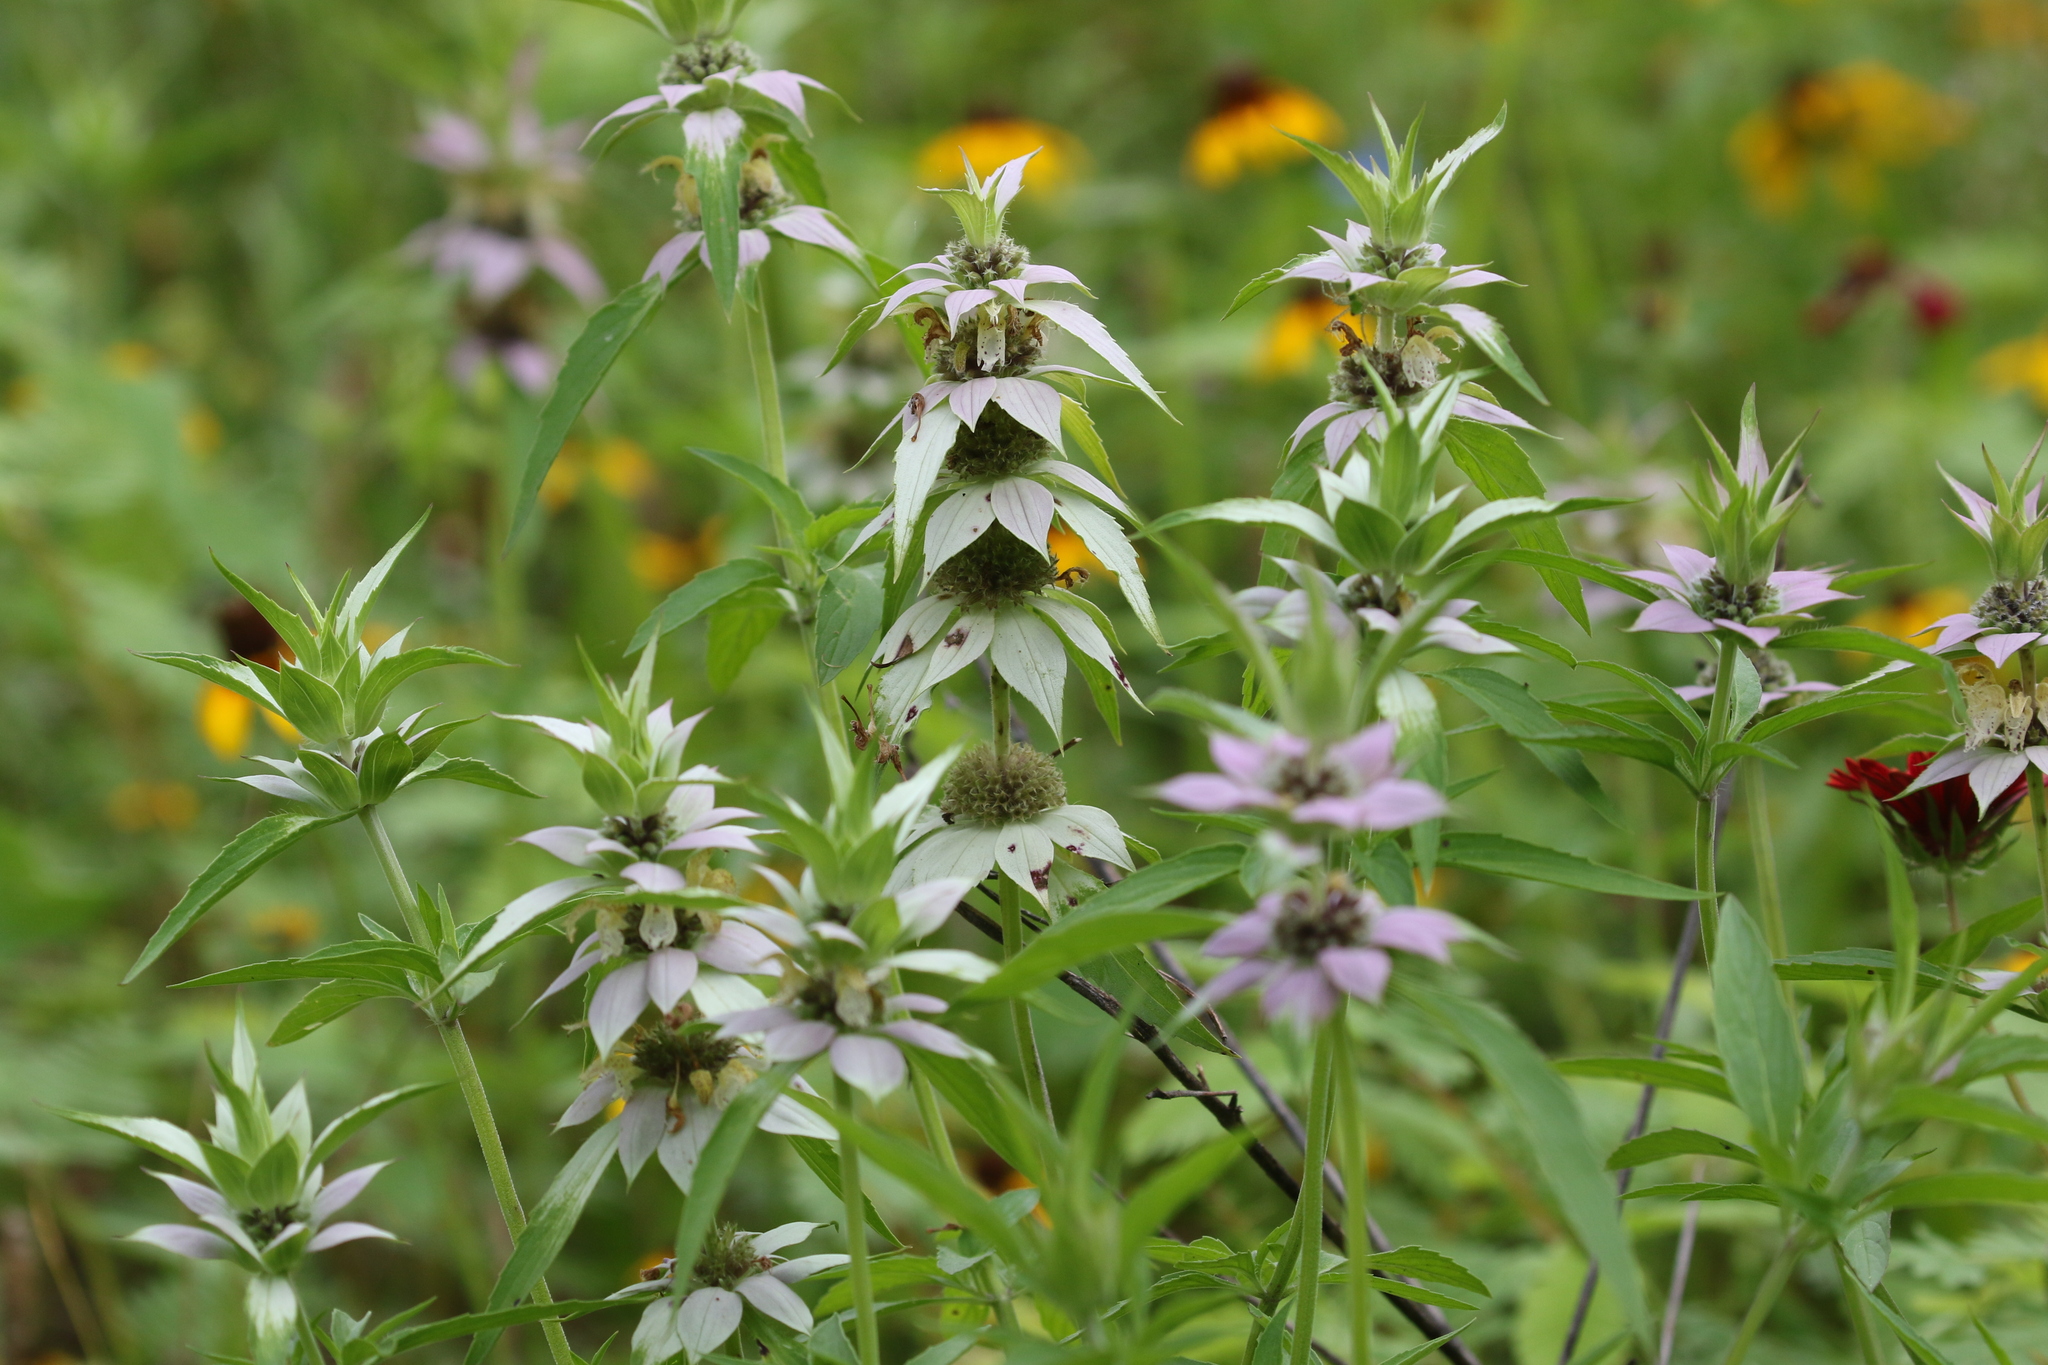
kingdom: Plantae
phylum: Tracheophyta
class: Magnoliopsida
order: Lamiales
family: Lamiaceae
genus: Monarda
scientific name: Monarda punctata
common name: Dotted monarda
